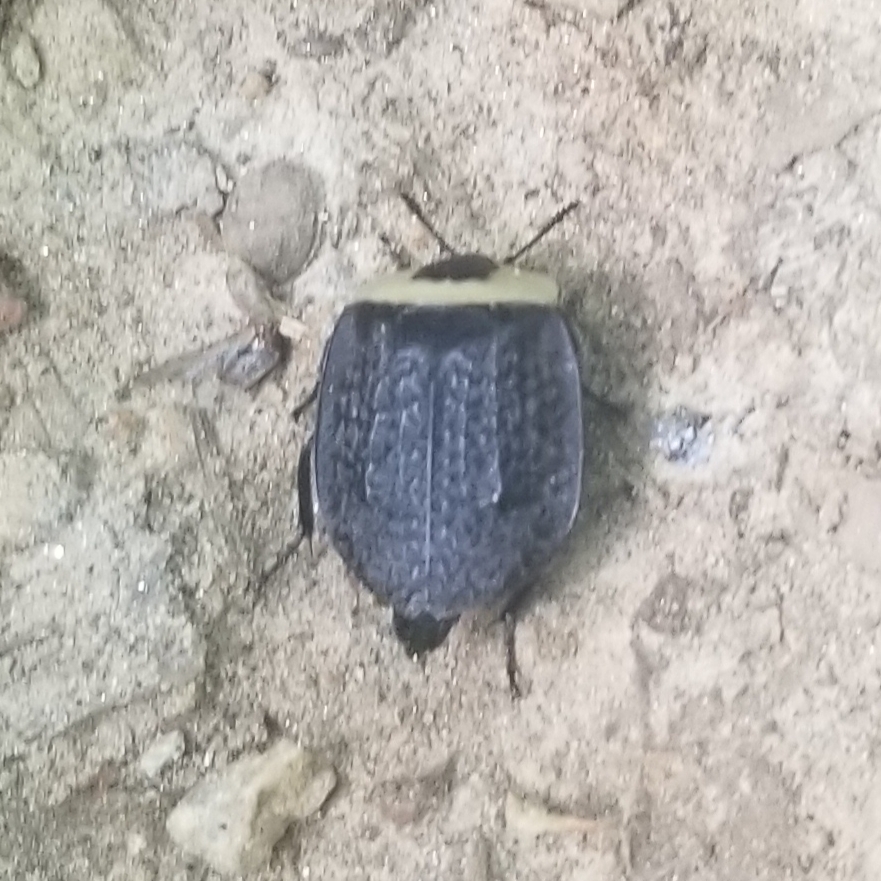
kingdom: Animalia
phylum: Arthropoda
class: Insecta
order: Coleoptera
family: Staphylinidae
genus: Necrophila
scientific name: Necrophila americana
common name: American carrion beetle
